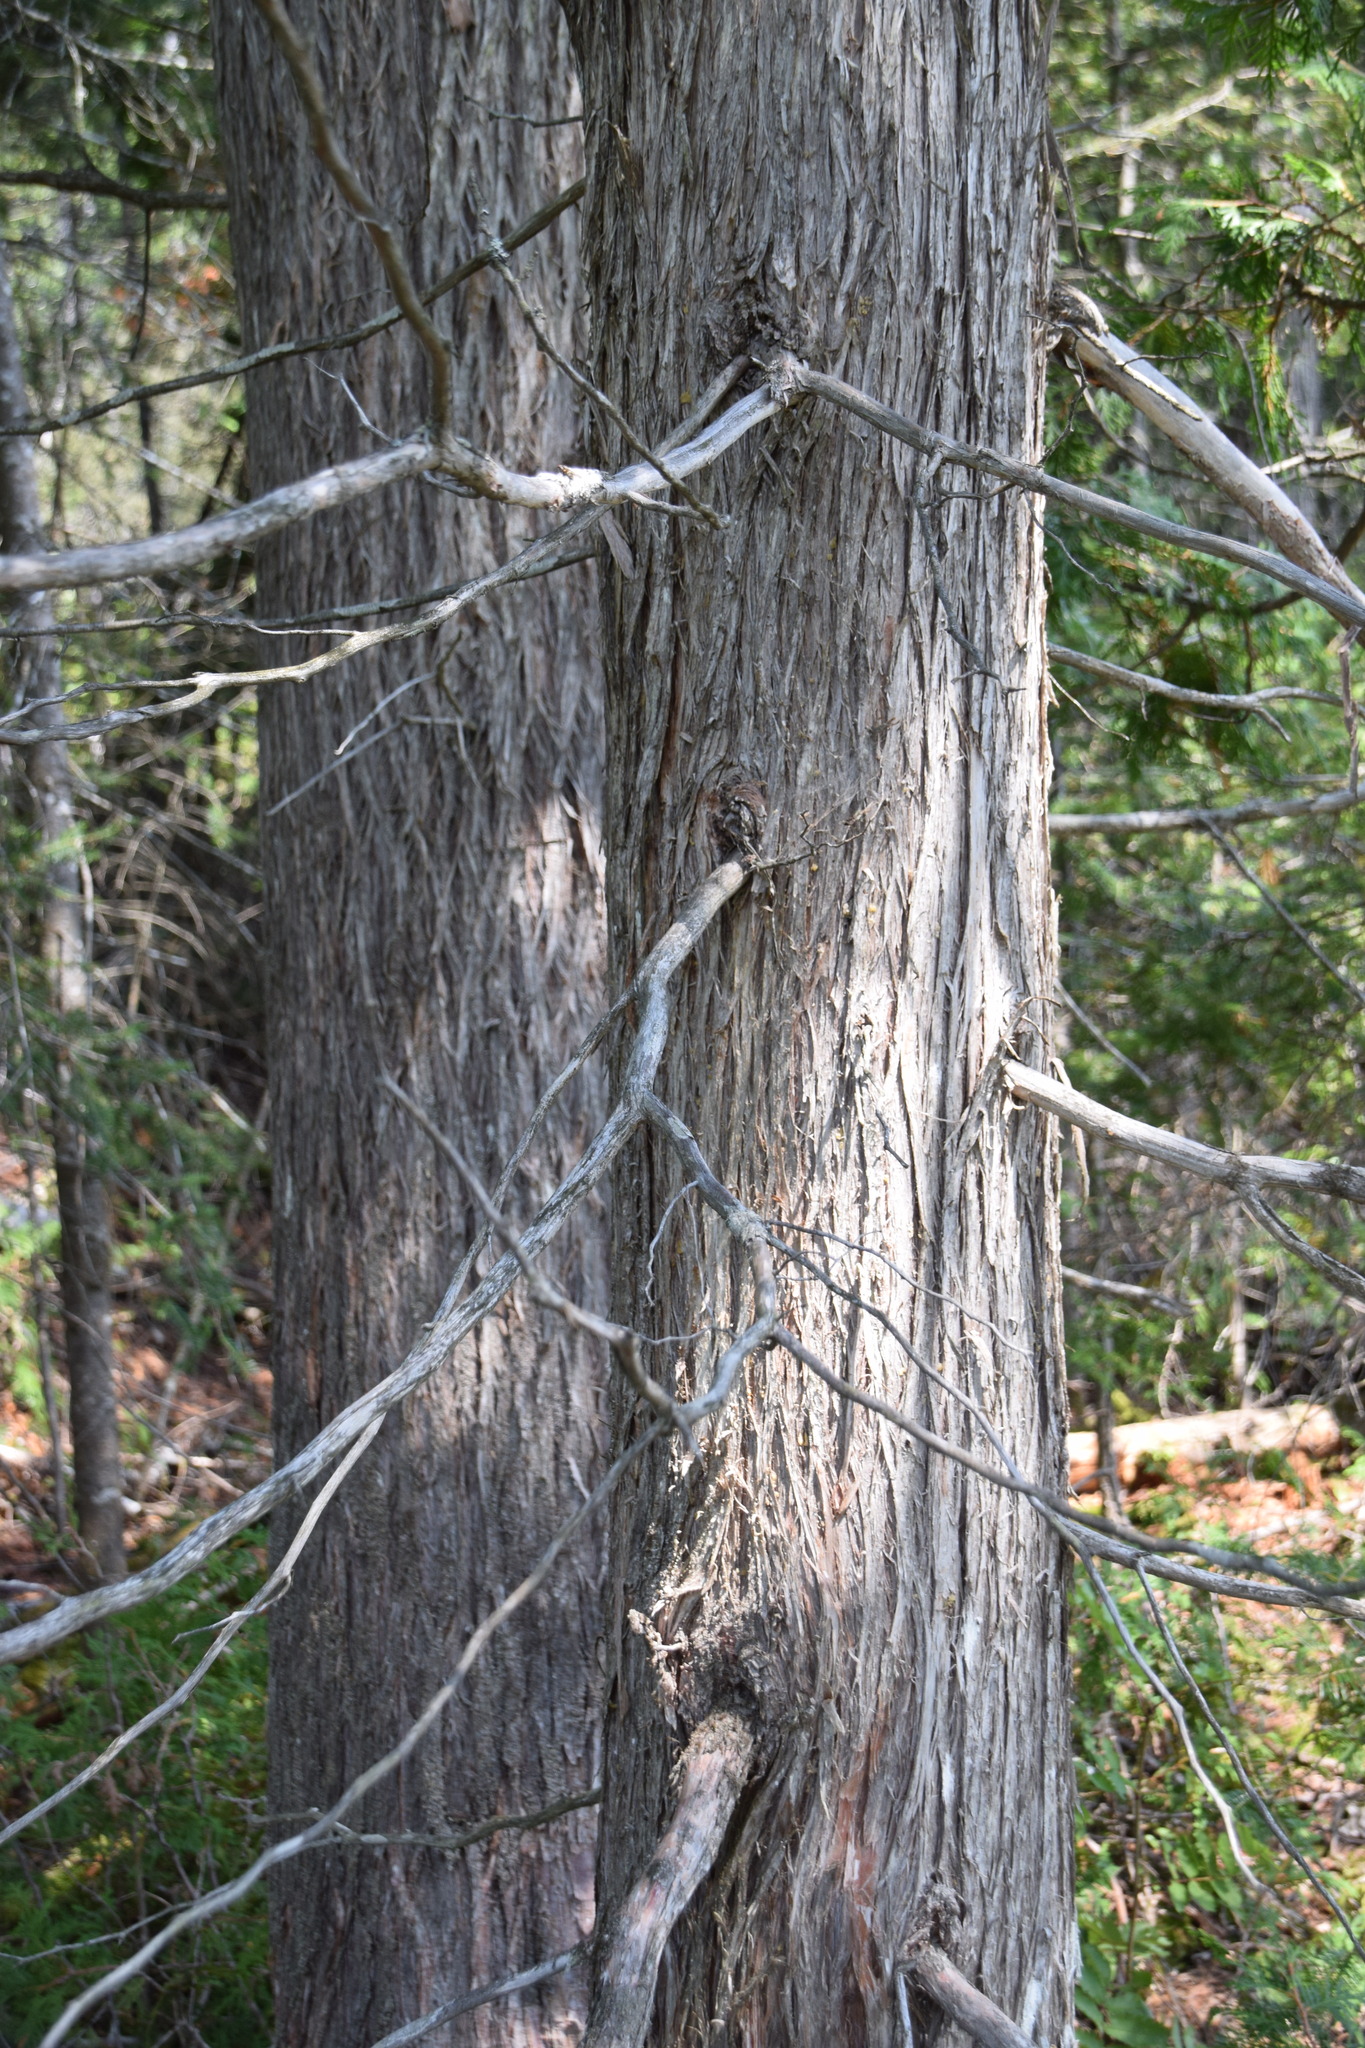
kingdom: Plantae
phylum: Tracheophyta
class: Pinopsida
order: Pinales
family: Cupressaceae
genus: Thuja
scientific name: Thuja occidentalis
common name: Northern white-cedar
